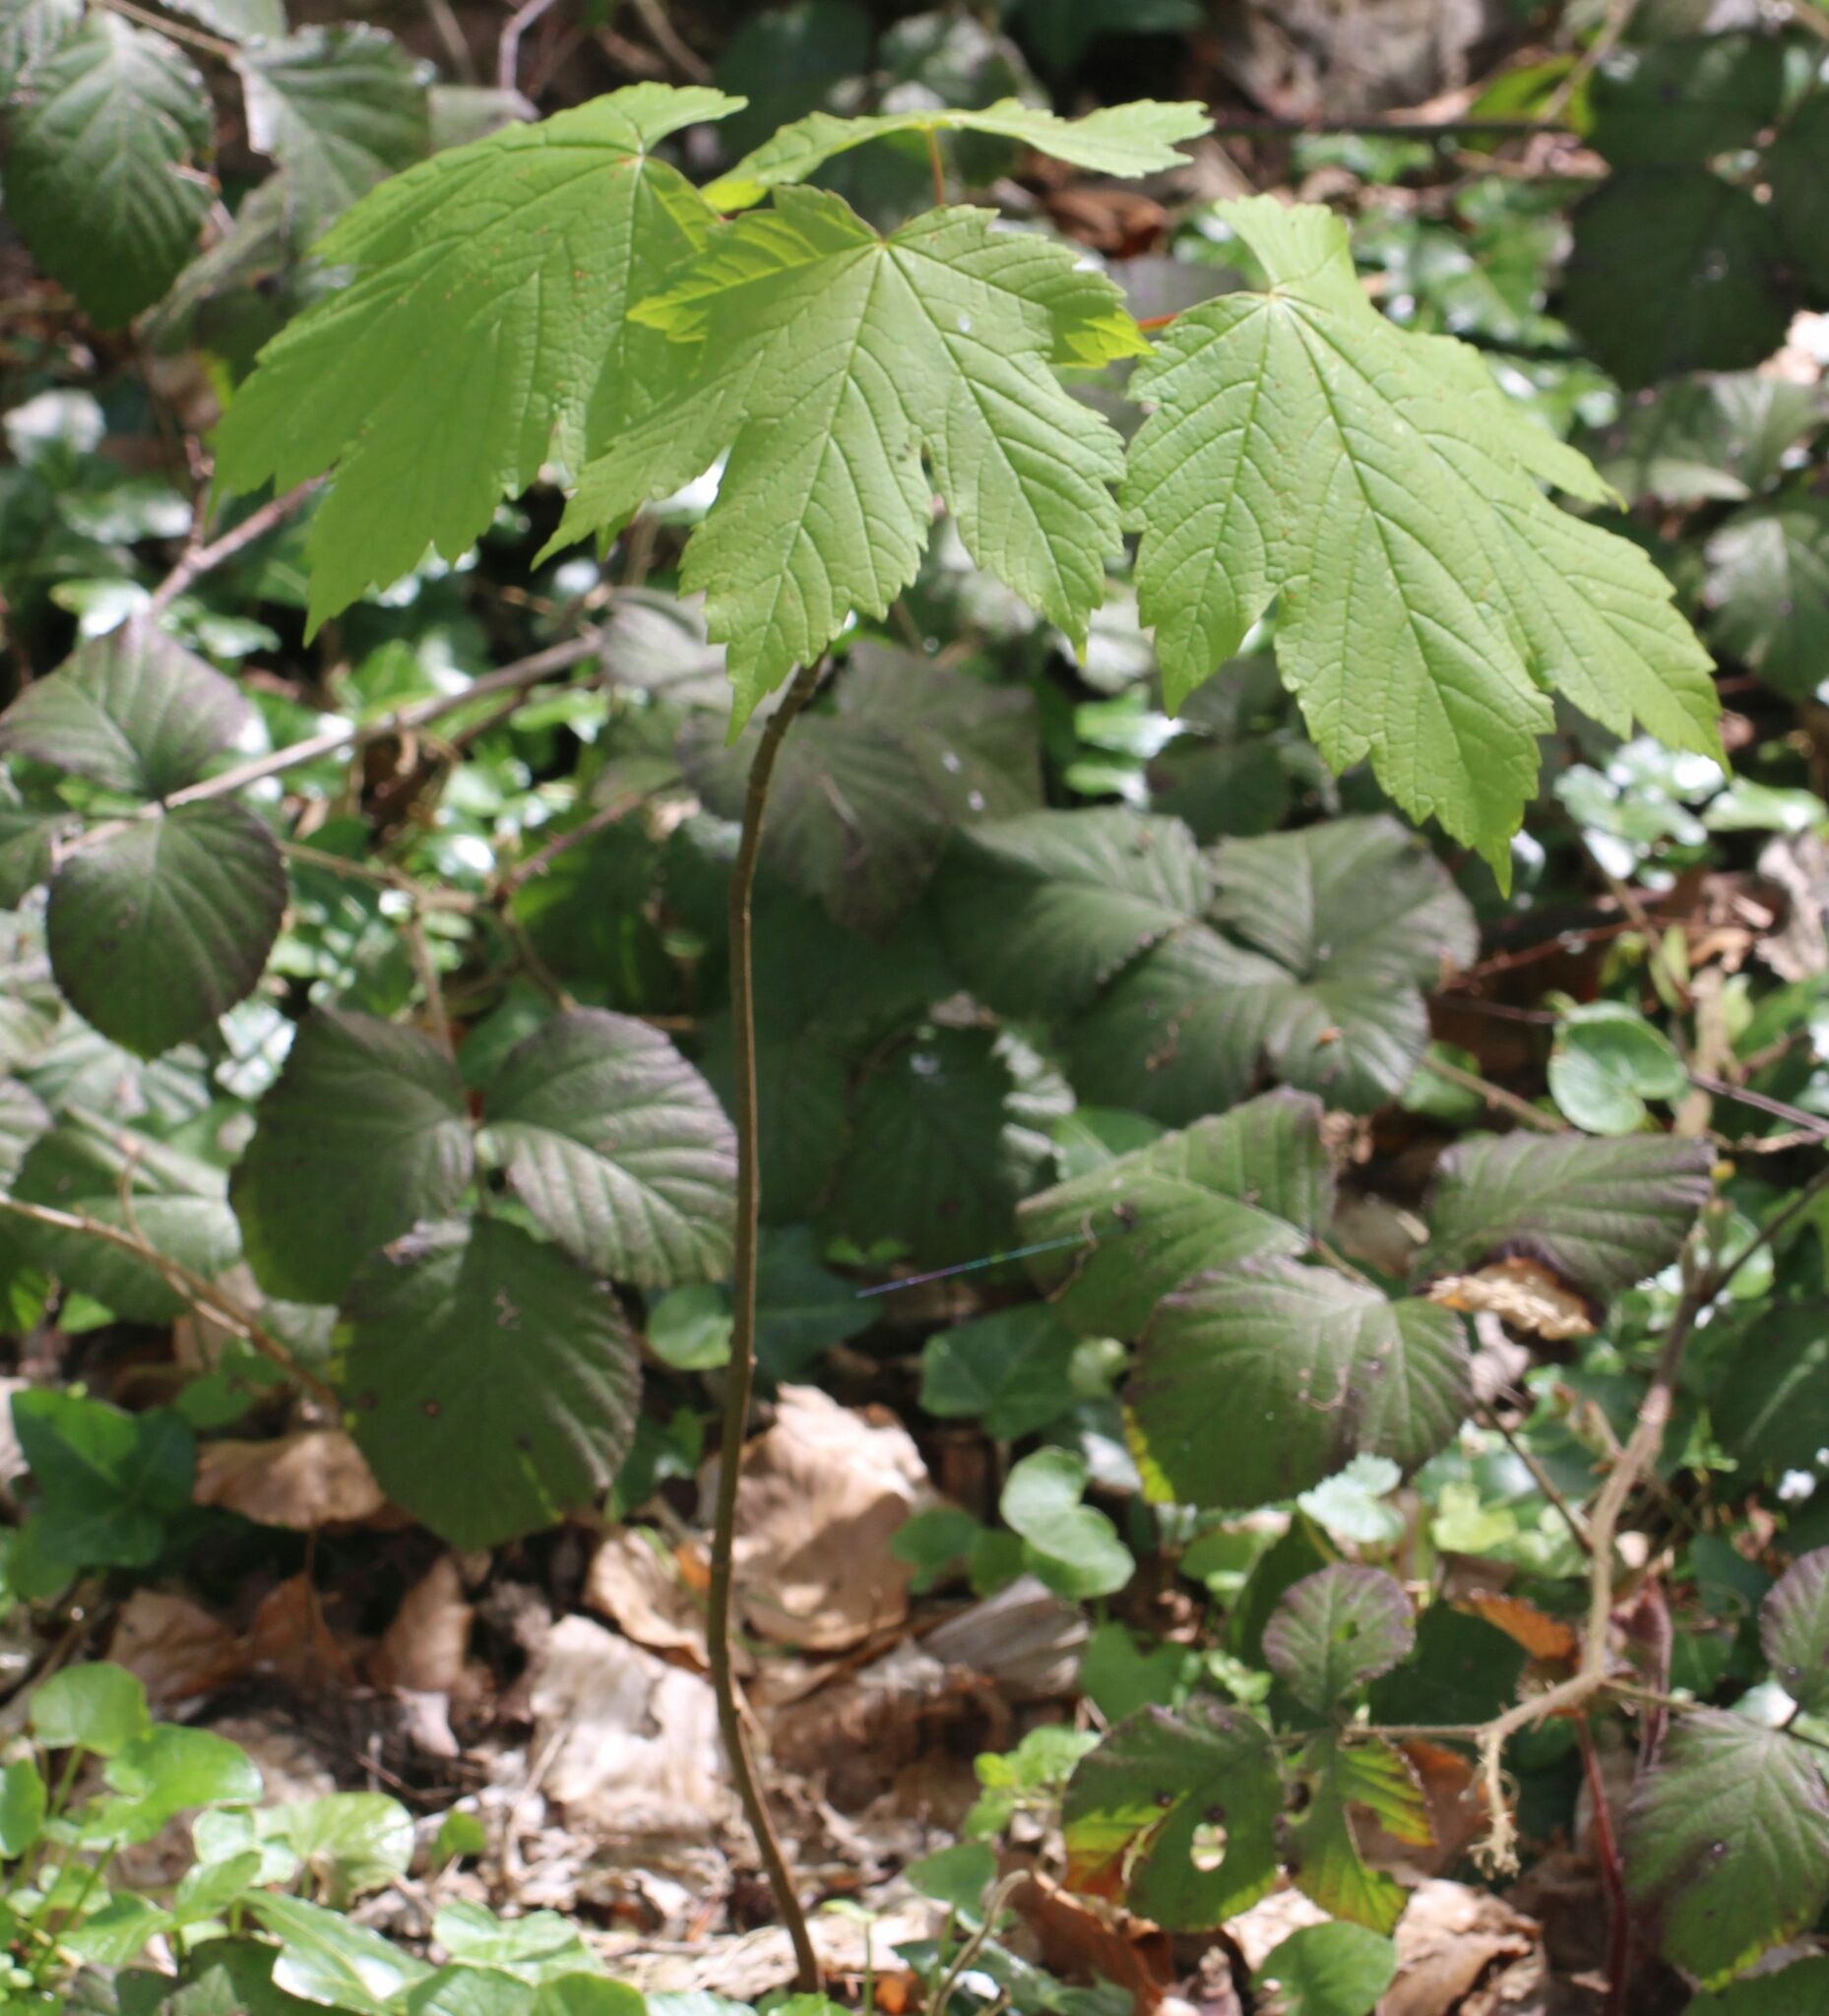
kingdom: Plantae
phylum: Tracheophyta
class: Magnoliopsida
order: Sapindales
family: Sapindaceae
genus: Acer
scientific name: Acer pseudoplatanus
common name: Sycamore
